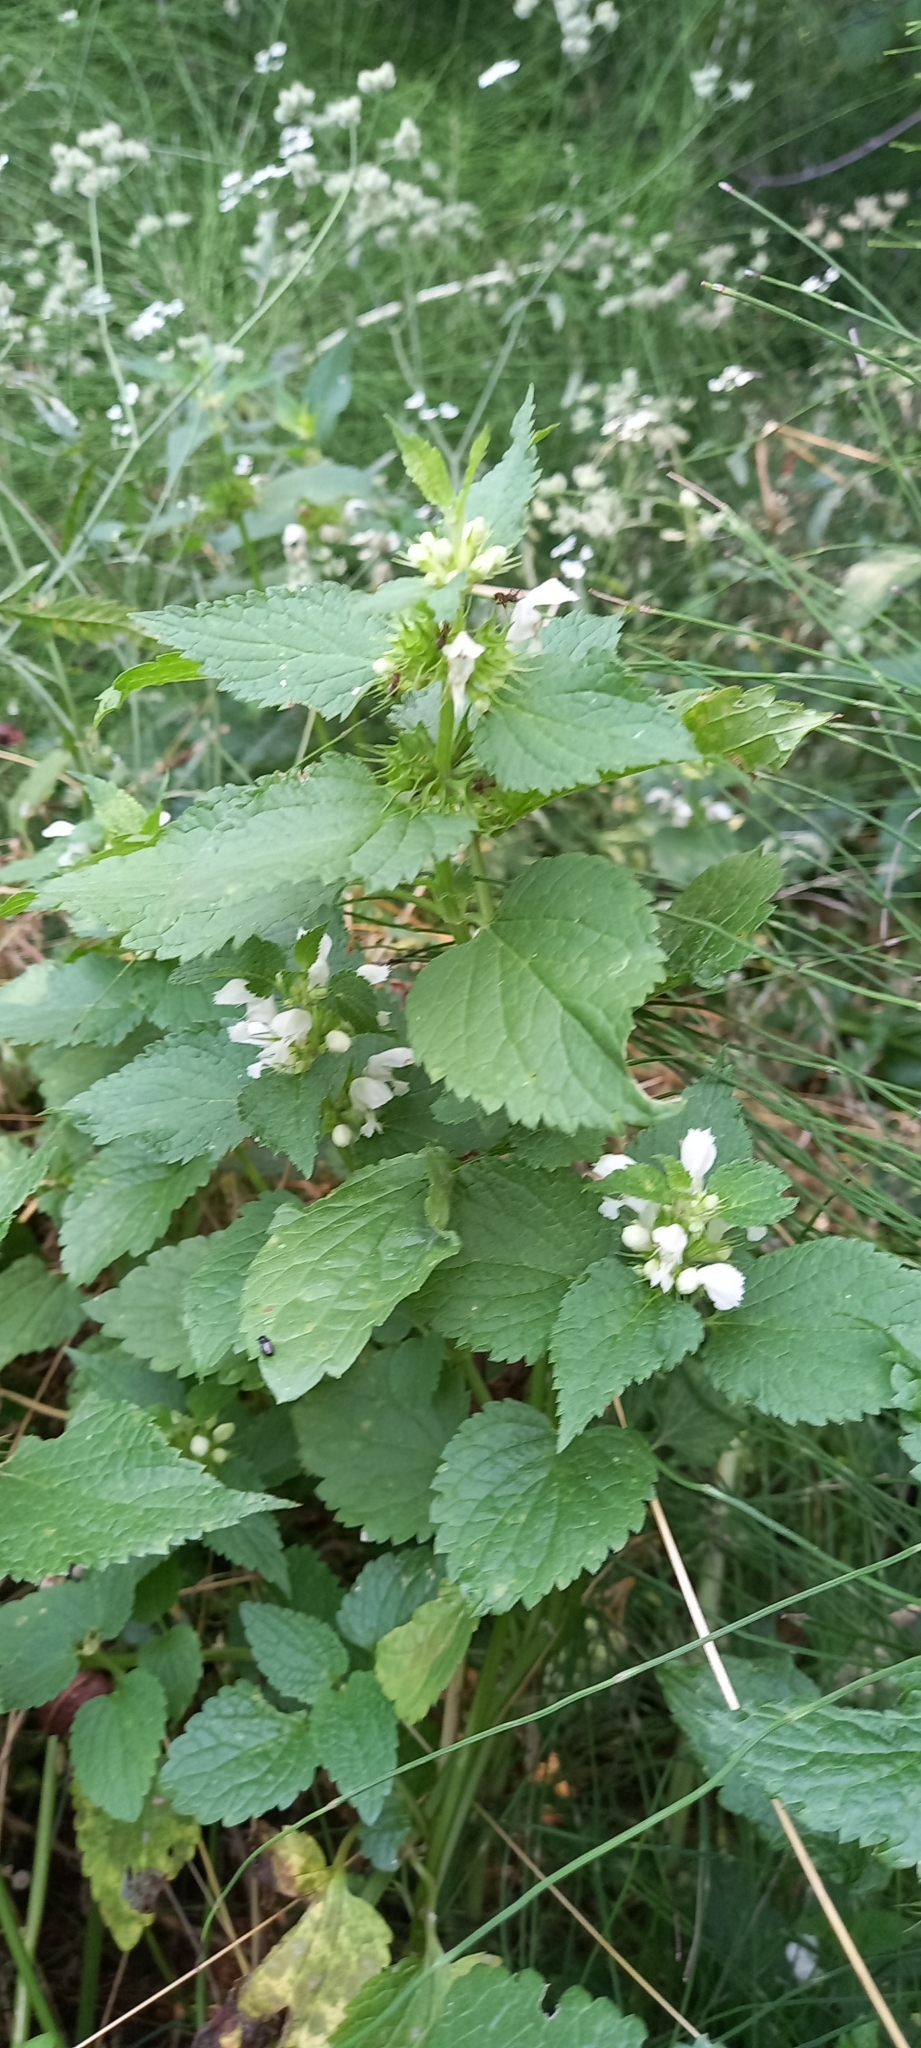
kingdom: Plantae
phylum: Tracheophyta
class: Magnoliopsida
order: Lamiales
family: Lamiaceae
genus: Lamium
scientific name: Lamium album
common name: White dead-nettle
